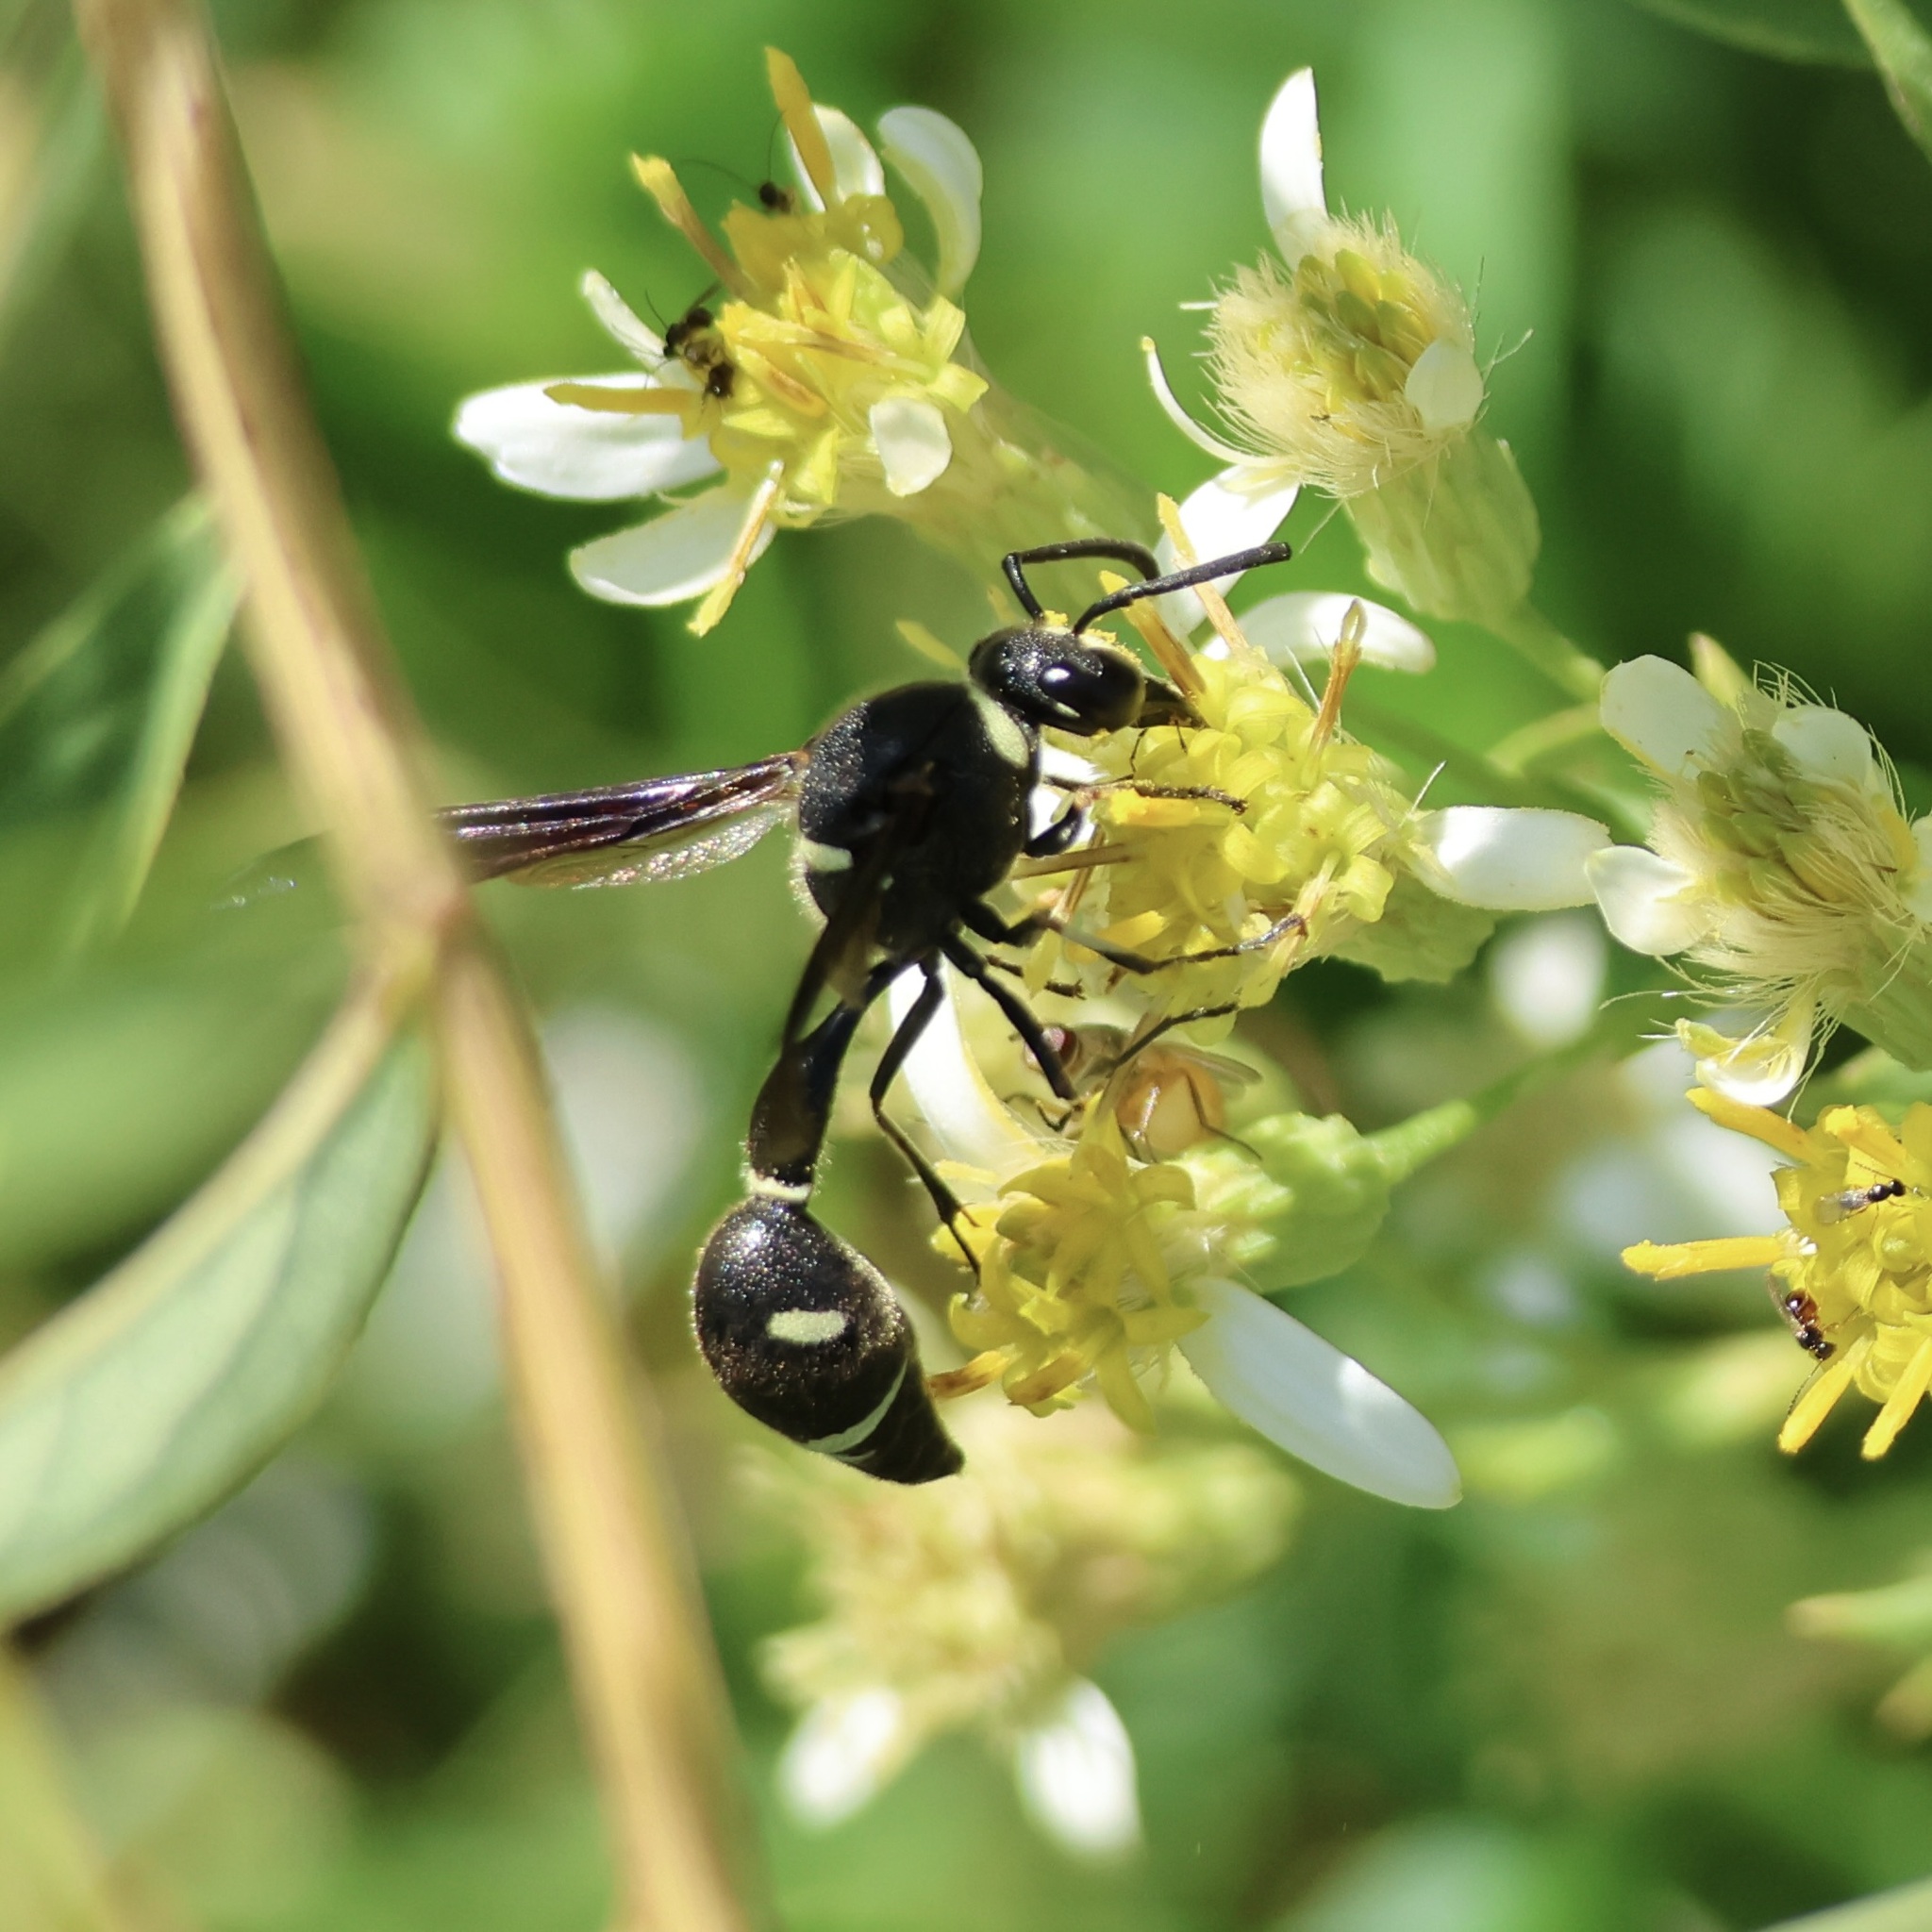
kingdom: Animalia
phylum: Arthropoda
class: Insecta
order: Hymenoptera
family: Vespidae
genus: Eumenes
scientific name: Eumenes fraternus
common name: Fraternal potter wasp
